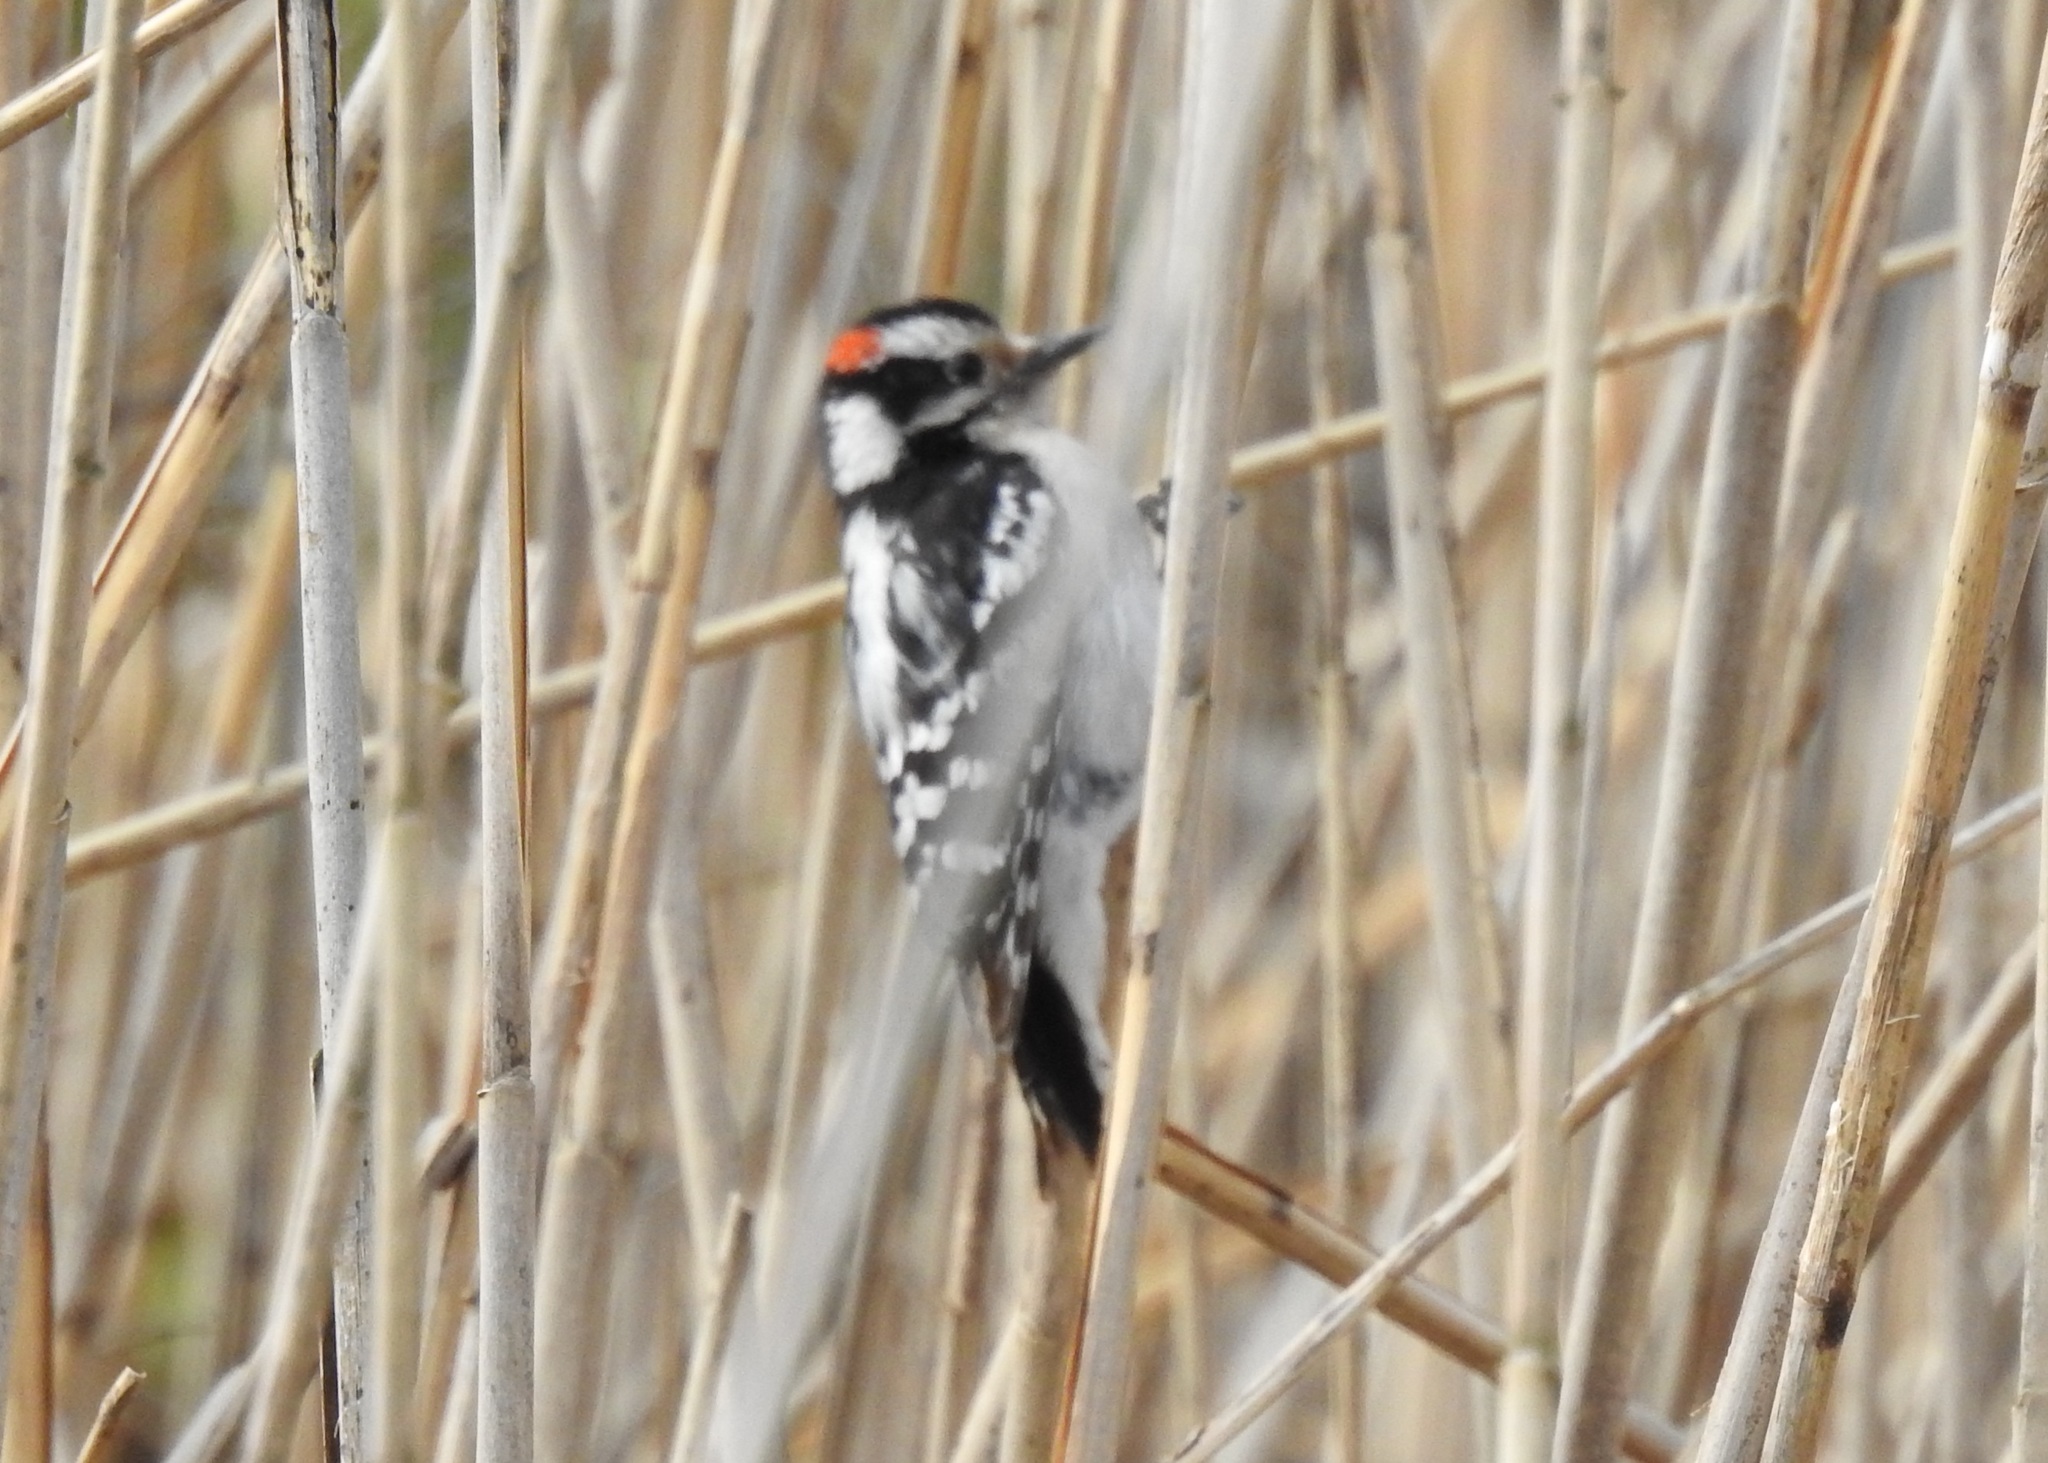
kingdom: Animalia
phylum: Chordata
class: Aves
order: Piciformes
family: Picidae
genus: Dryobates
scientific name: Dryobates pubescens
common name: Downy woodpecker
